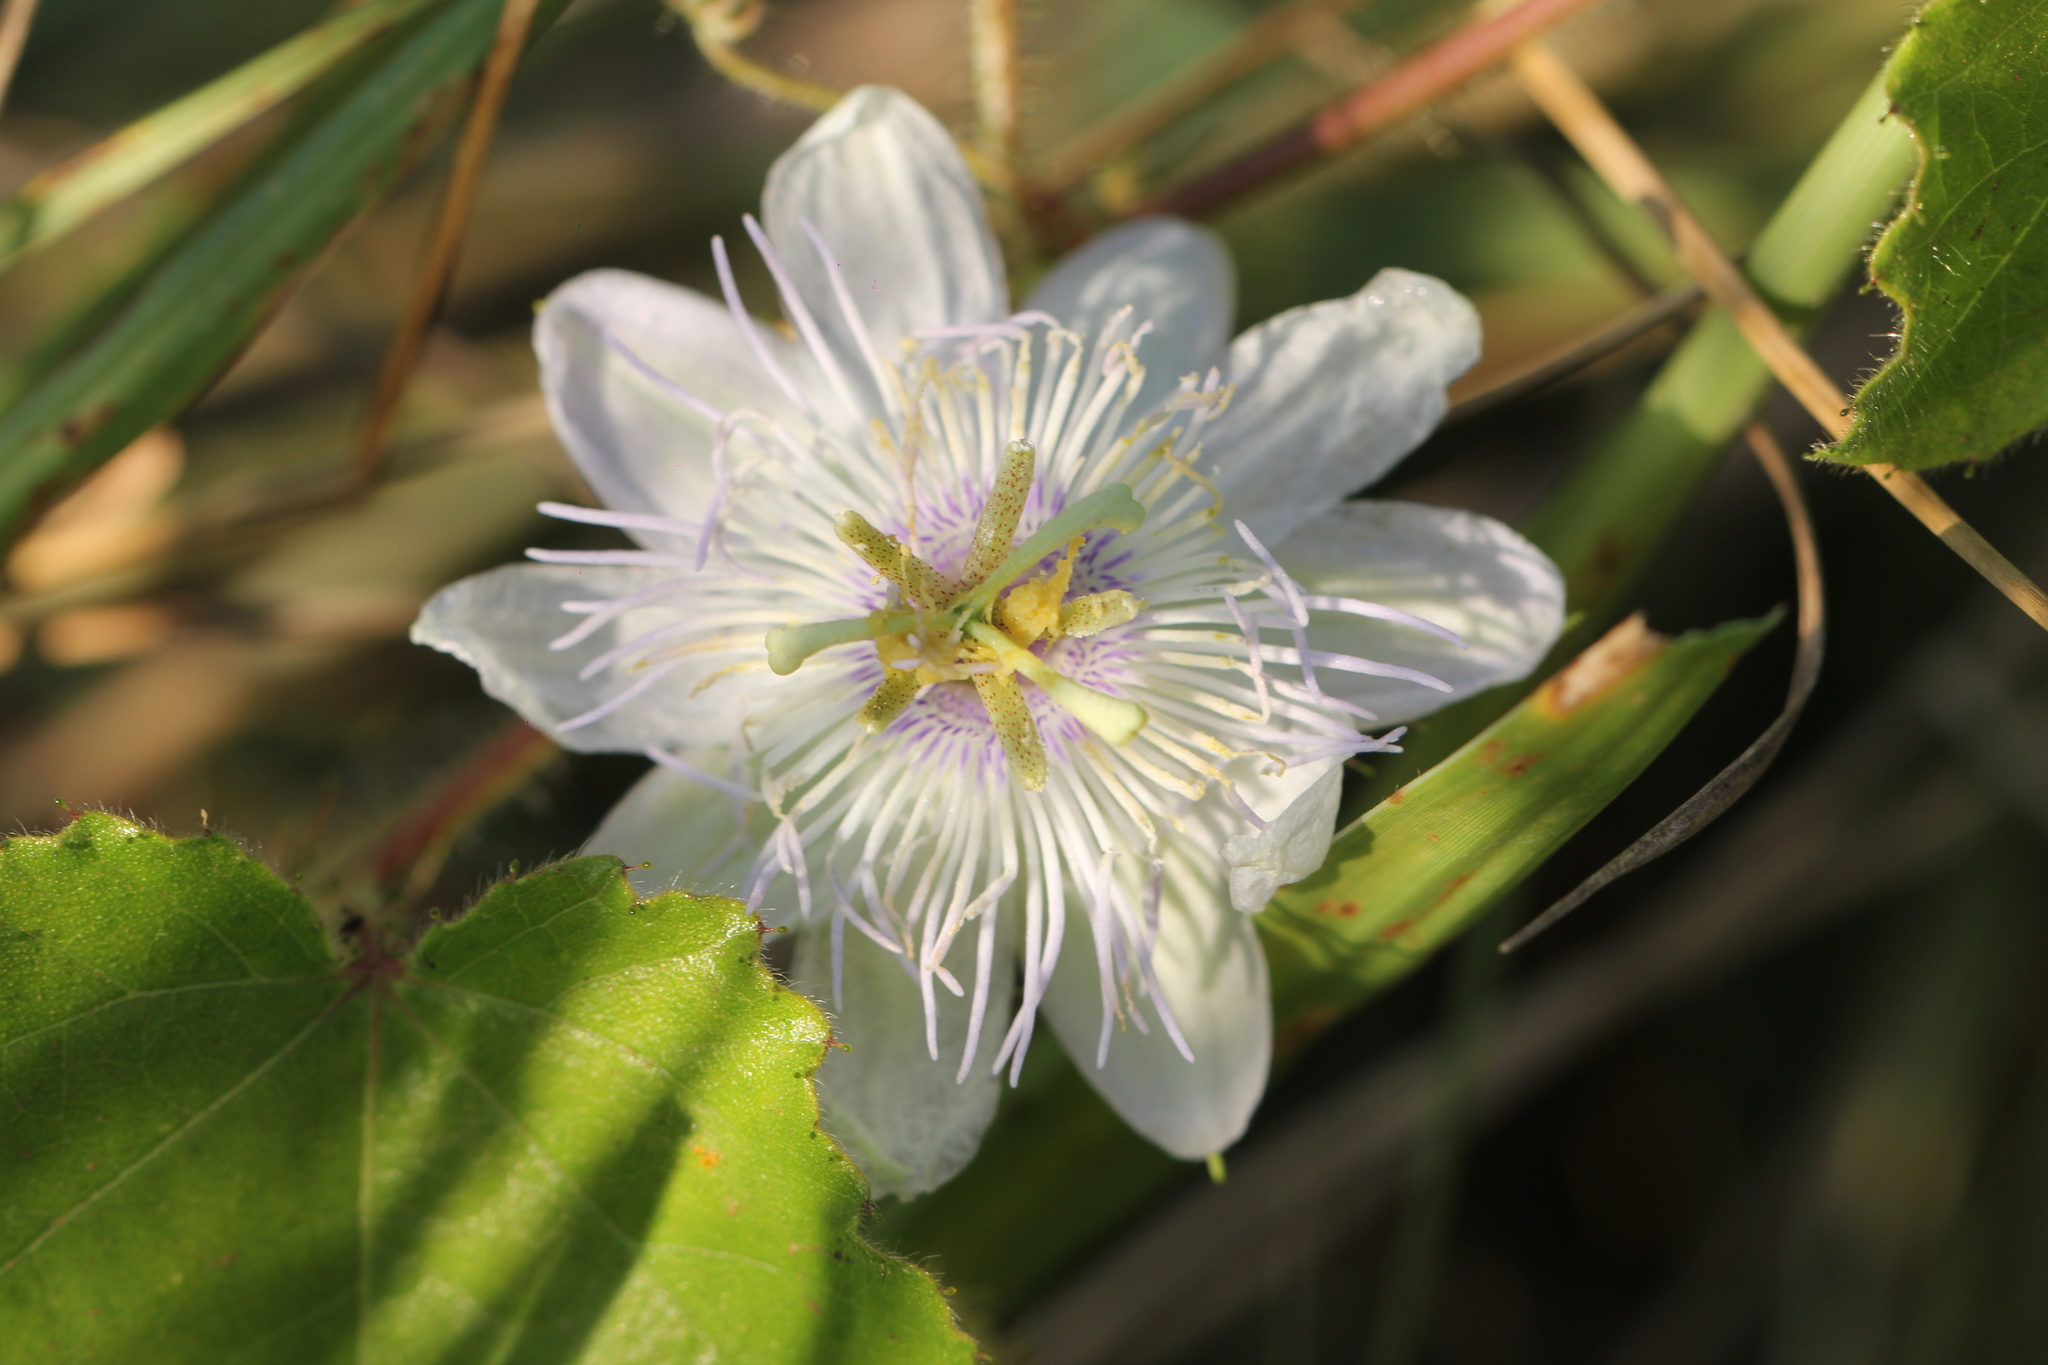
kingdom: Plantae
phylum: Tracheophyta
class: Magnoliopsida
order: Malpighiales
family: Passifloraceae
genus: Passiflora
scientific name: Passiflora foetida
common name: Fetid passionflower
